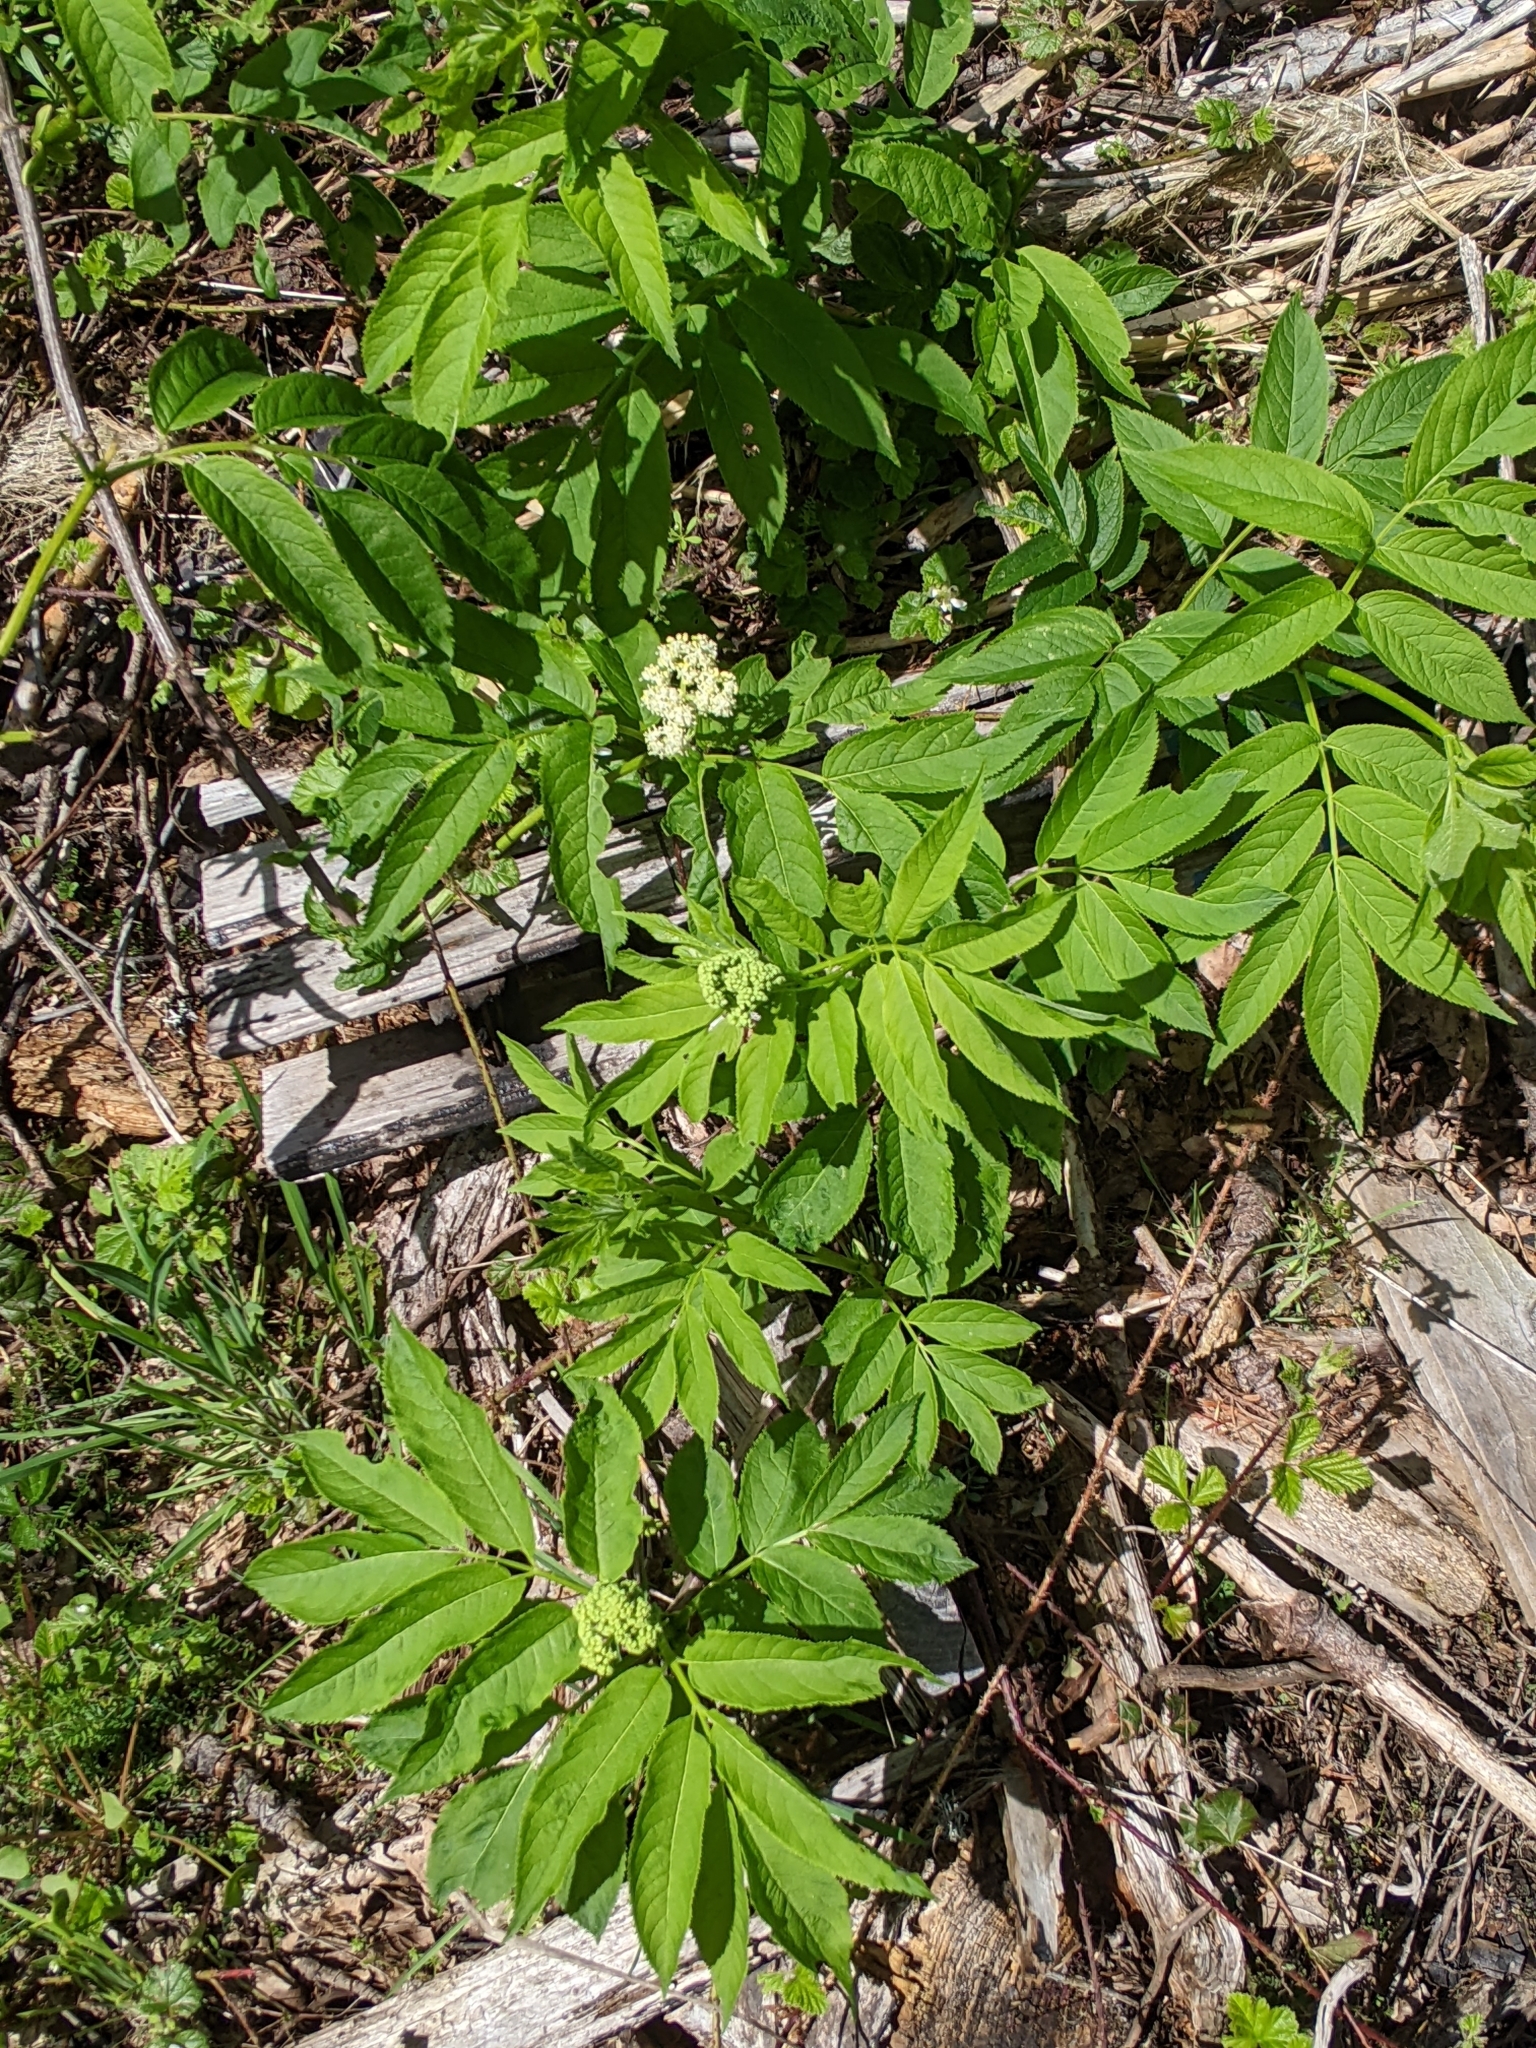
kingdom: Plantae
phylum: Tracheophyta
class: Magnoliopsida
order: Dipsacales
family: Viburnaceae
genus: Sambucus
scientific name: Sambucus racemosa
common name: Red-berried elder
